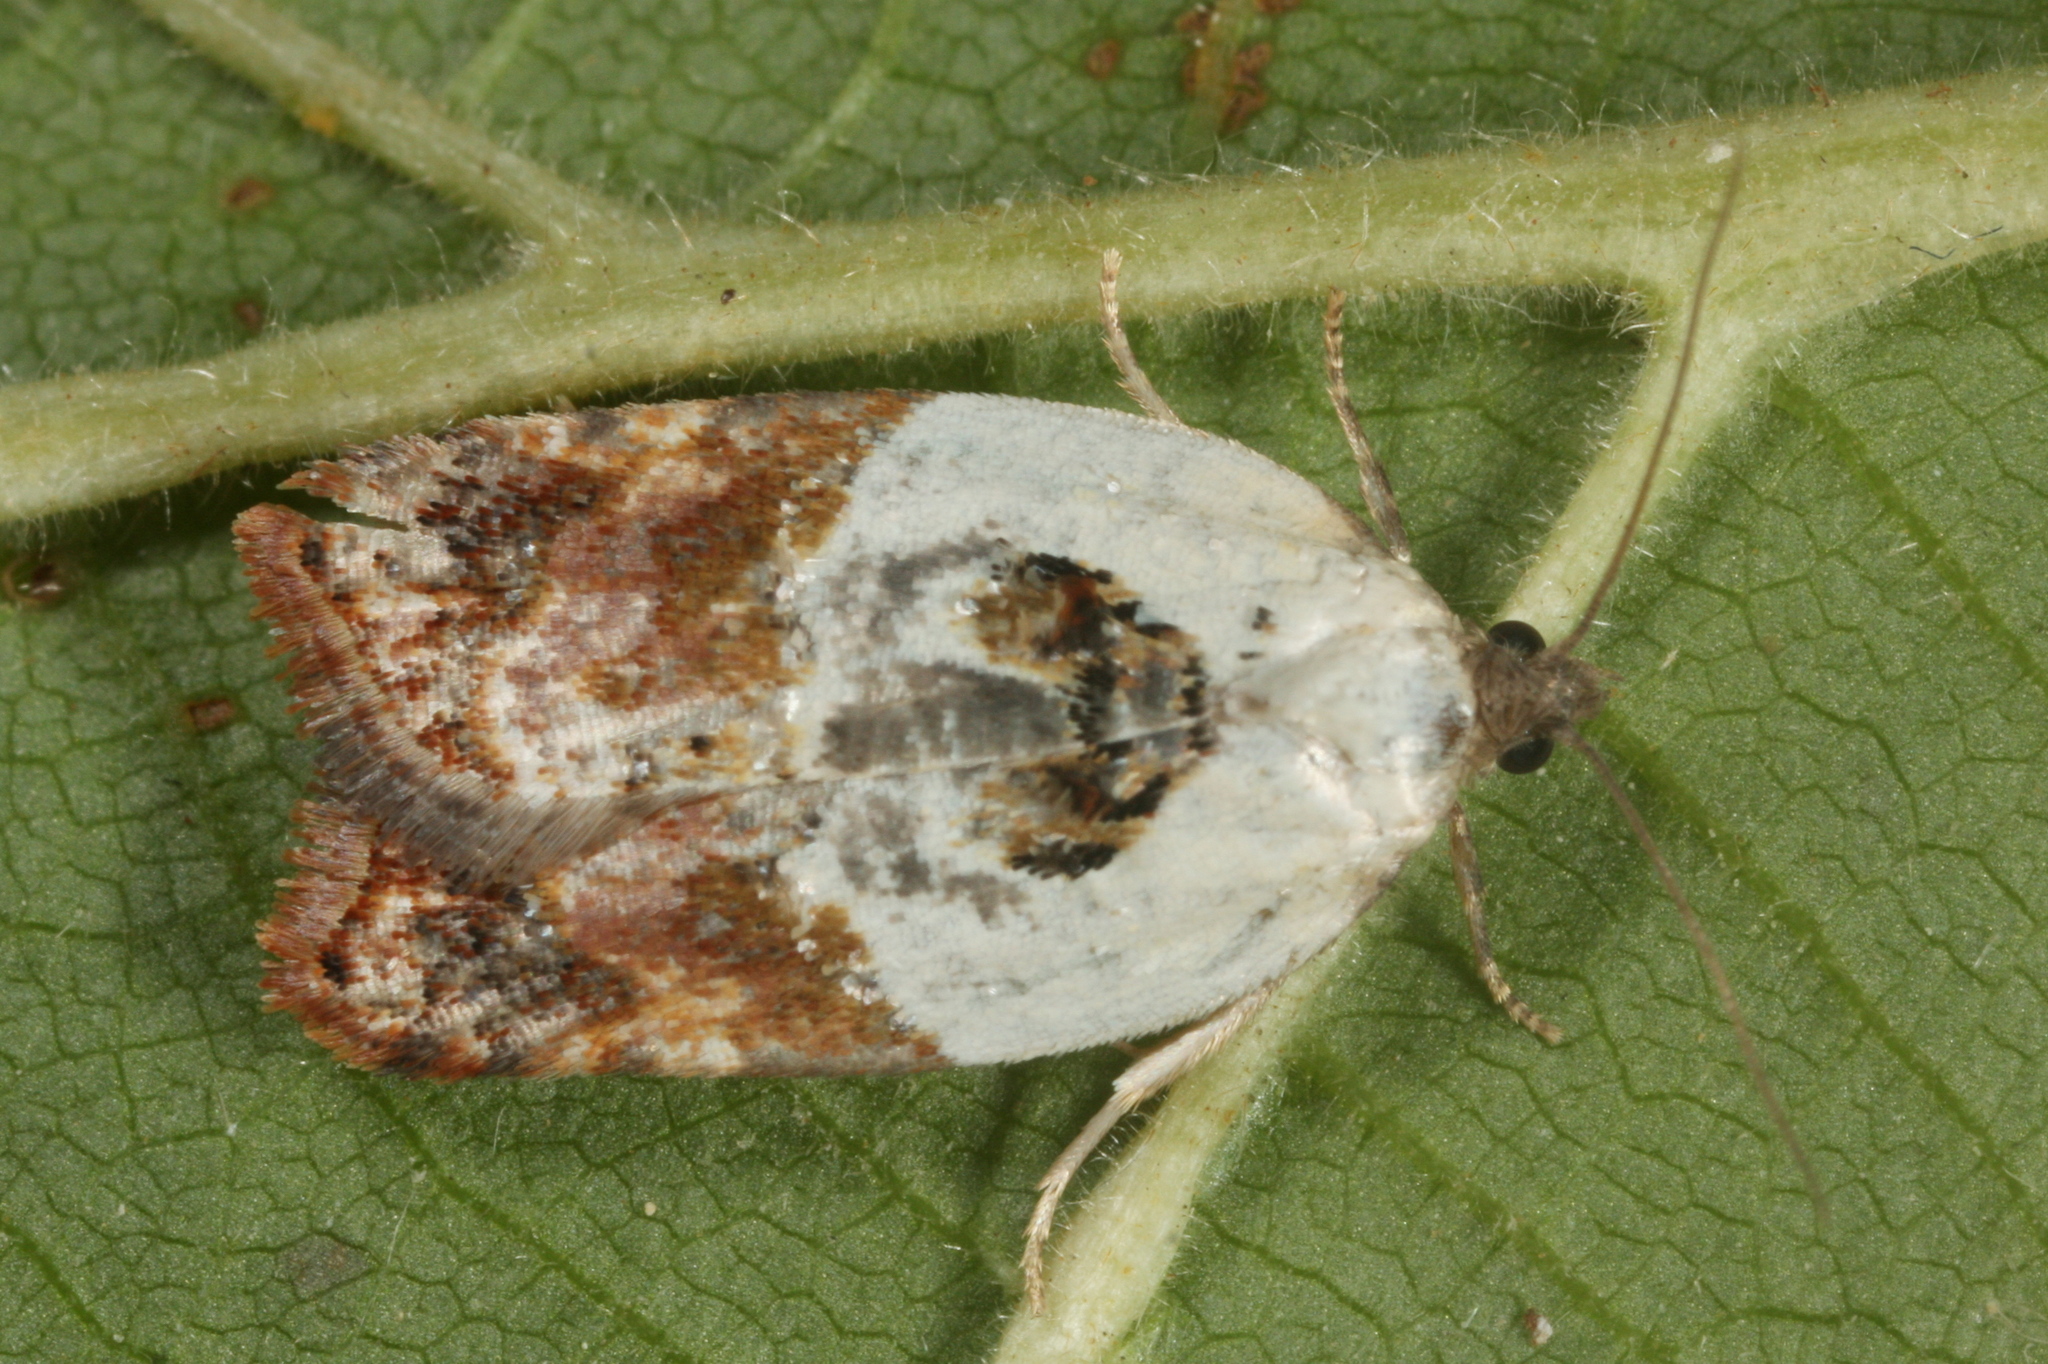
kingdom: Animalia
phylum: Arthropoda
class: Insecta
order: Lepidoptera
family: Tortricidae
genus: Acleris
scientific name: Acleris variegana
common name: Garden rose tortrix
